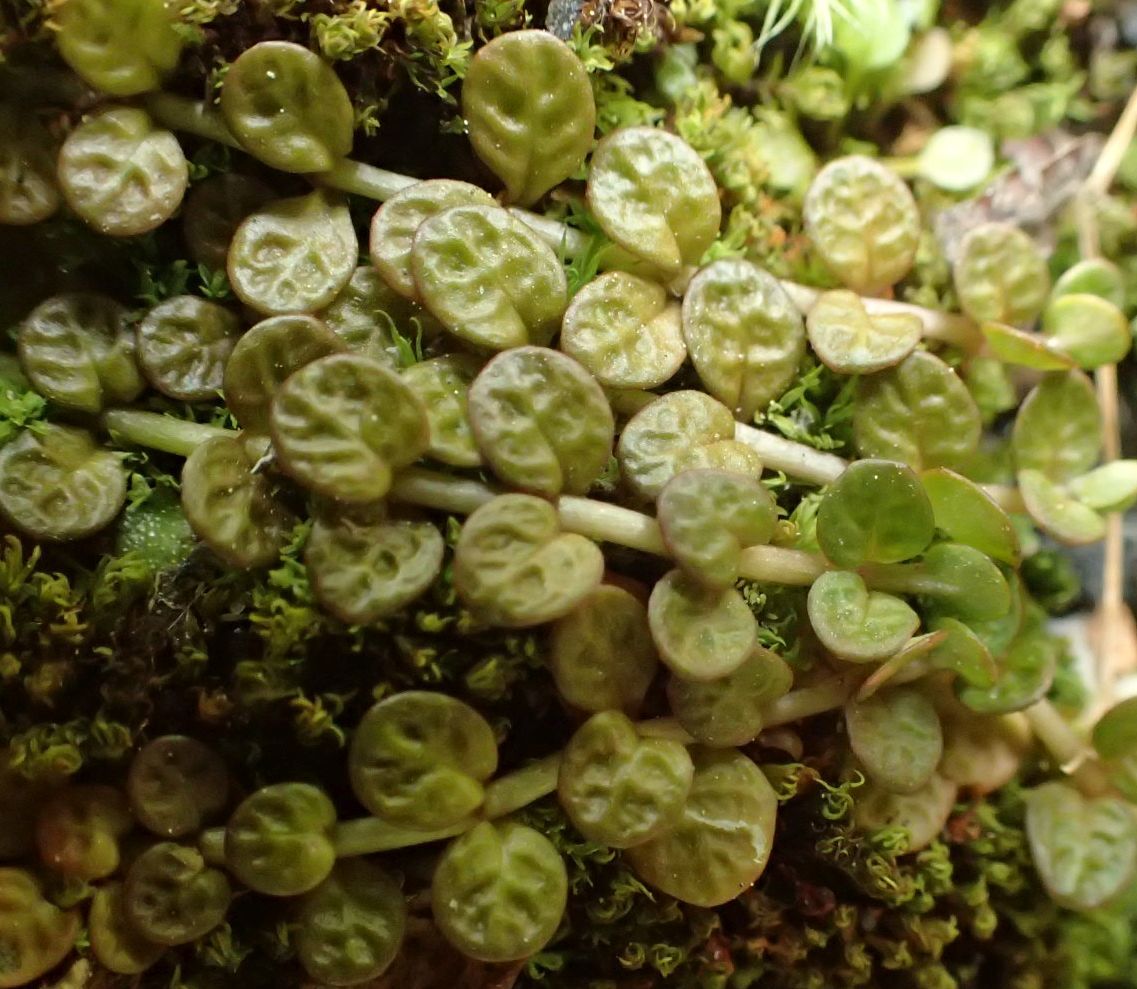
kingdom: Plantae
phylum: Tracheophyta
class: Magnoliopsida
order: Myrtales
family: Onagraceae
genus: Epilobium
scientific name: Epilobium komarovianum
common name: Bronzy willowherb
